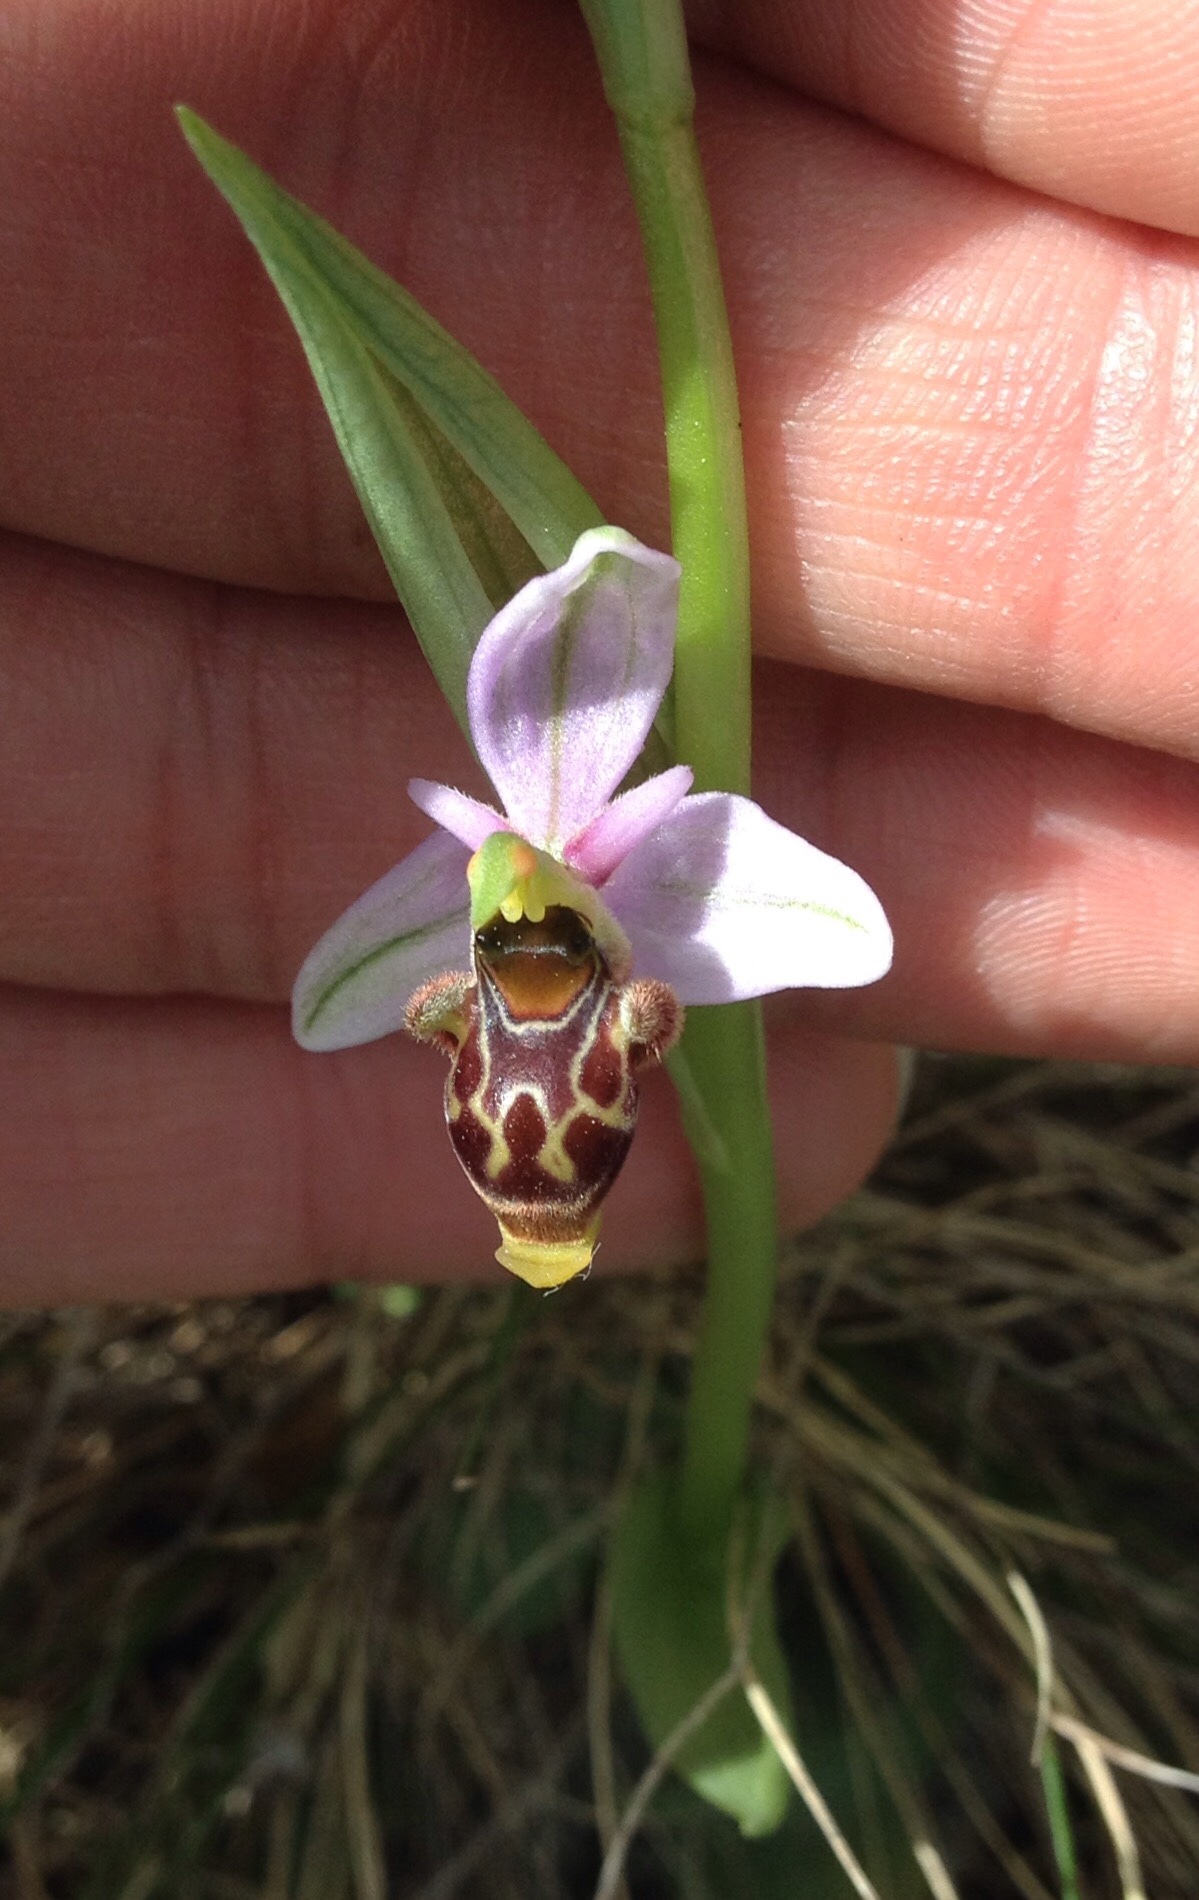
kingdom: Plantae
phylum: Tracheophyta
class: Liliopsida
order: Asparagales
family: Orchidaceae
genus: Ophrys
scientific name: Ophrys scolopax
